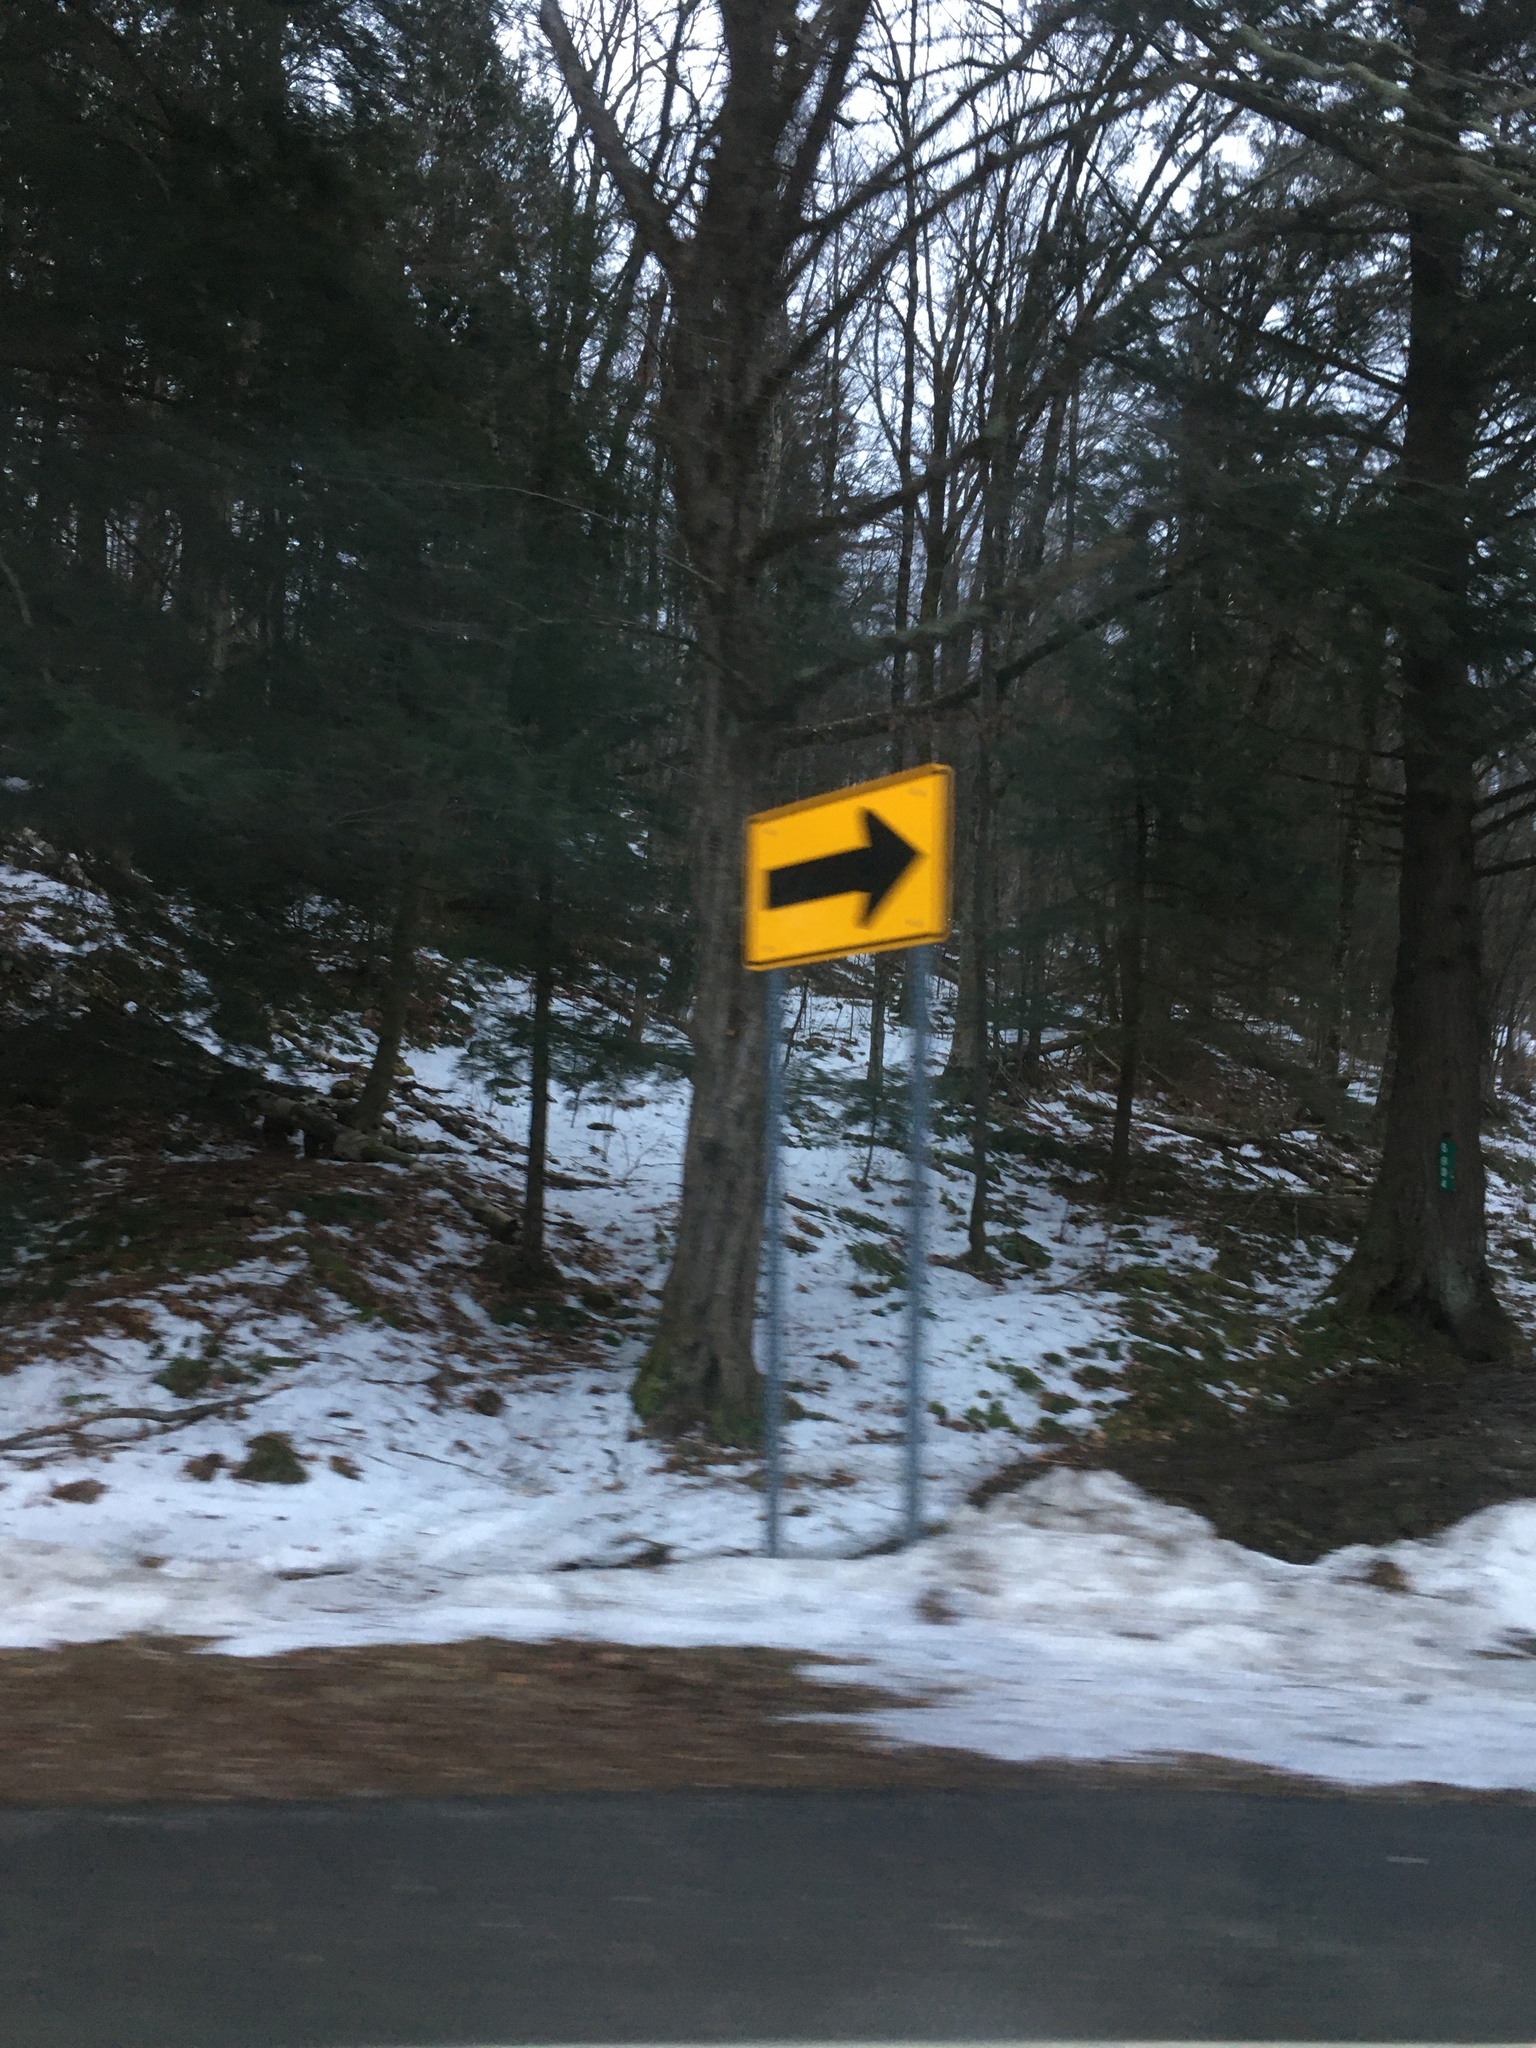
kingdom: Plantae
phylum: Tracheophyta
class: Magnoliopsida
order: Fagales
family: Betulaceae
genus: Ostrya
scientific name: Ostrya virginiana
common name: Ironwood
